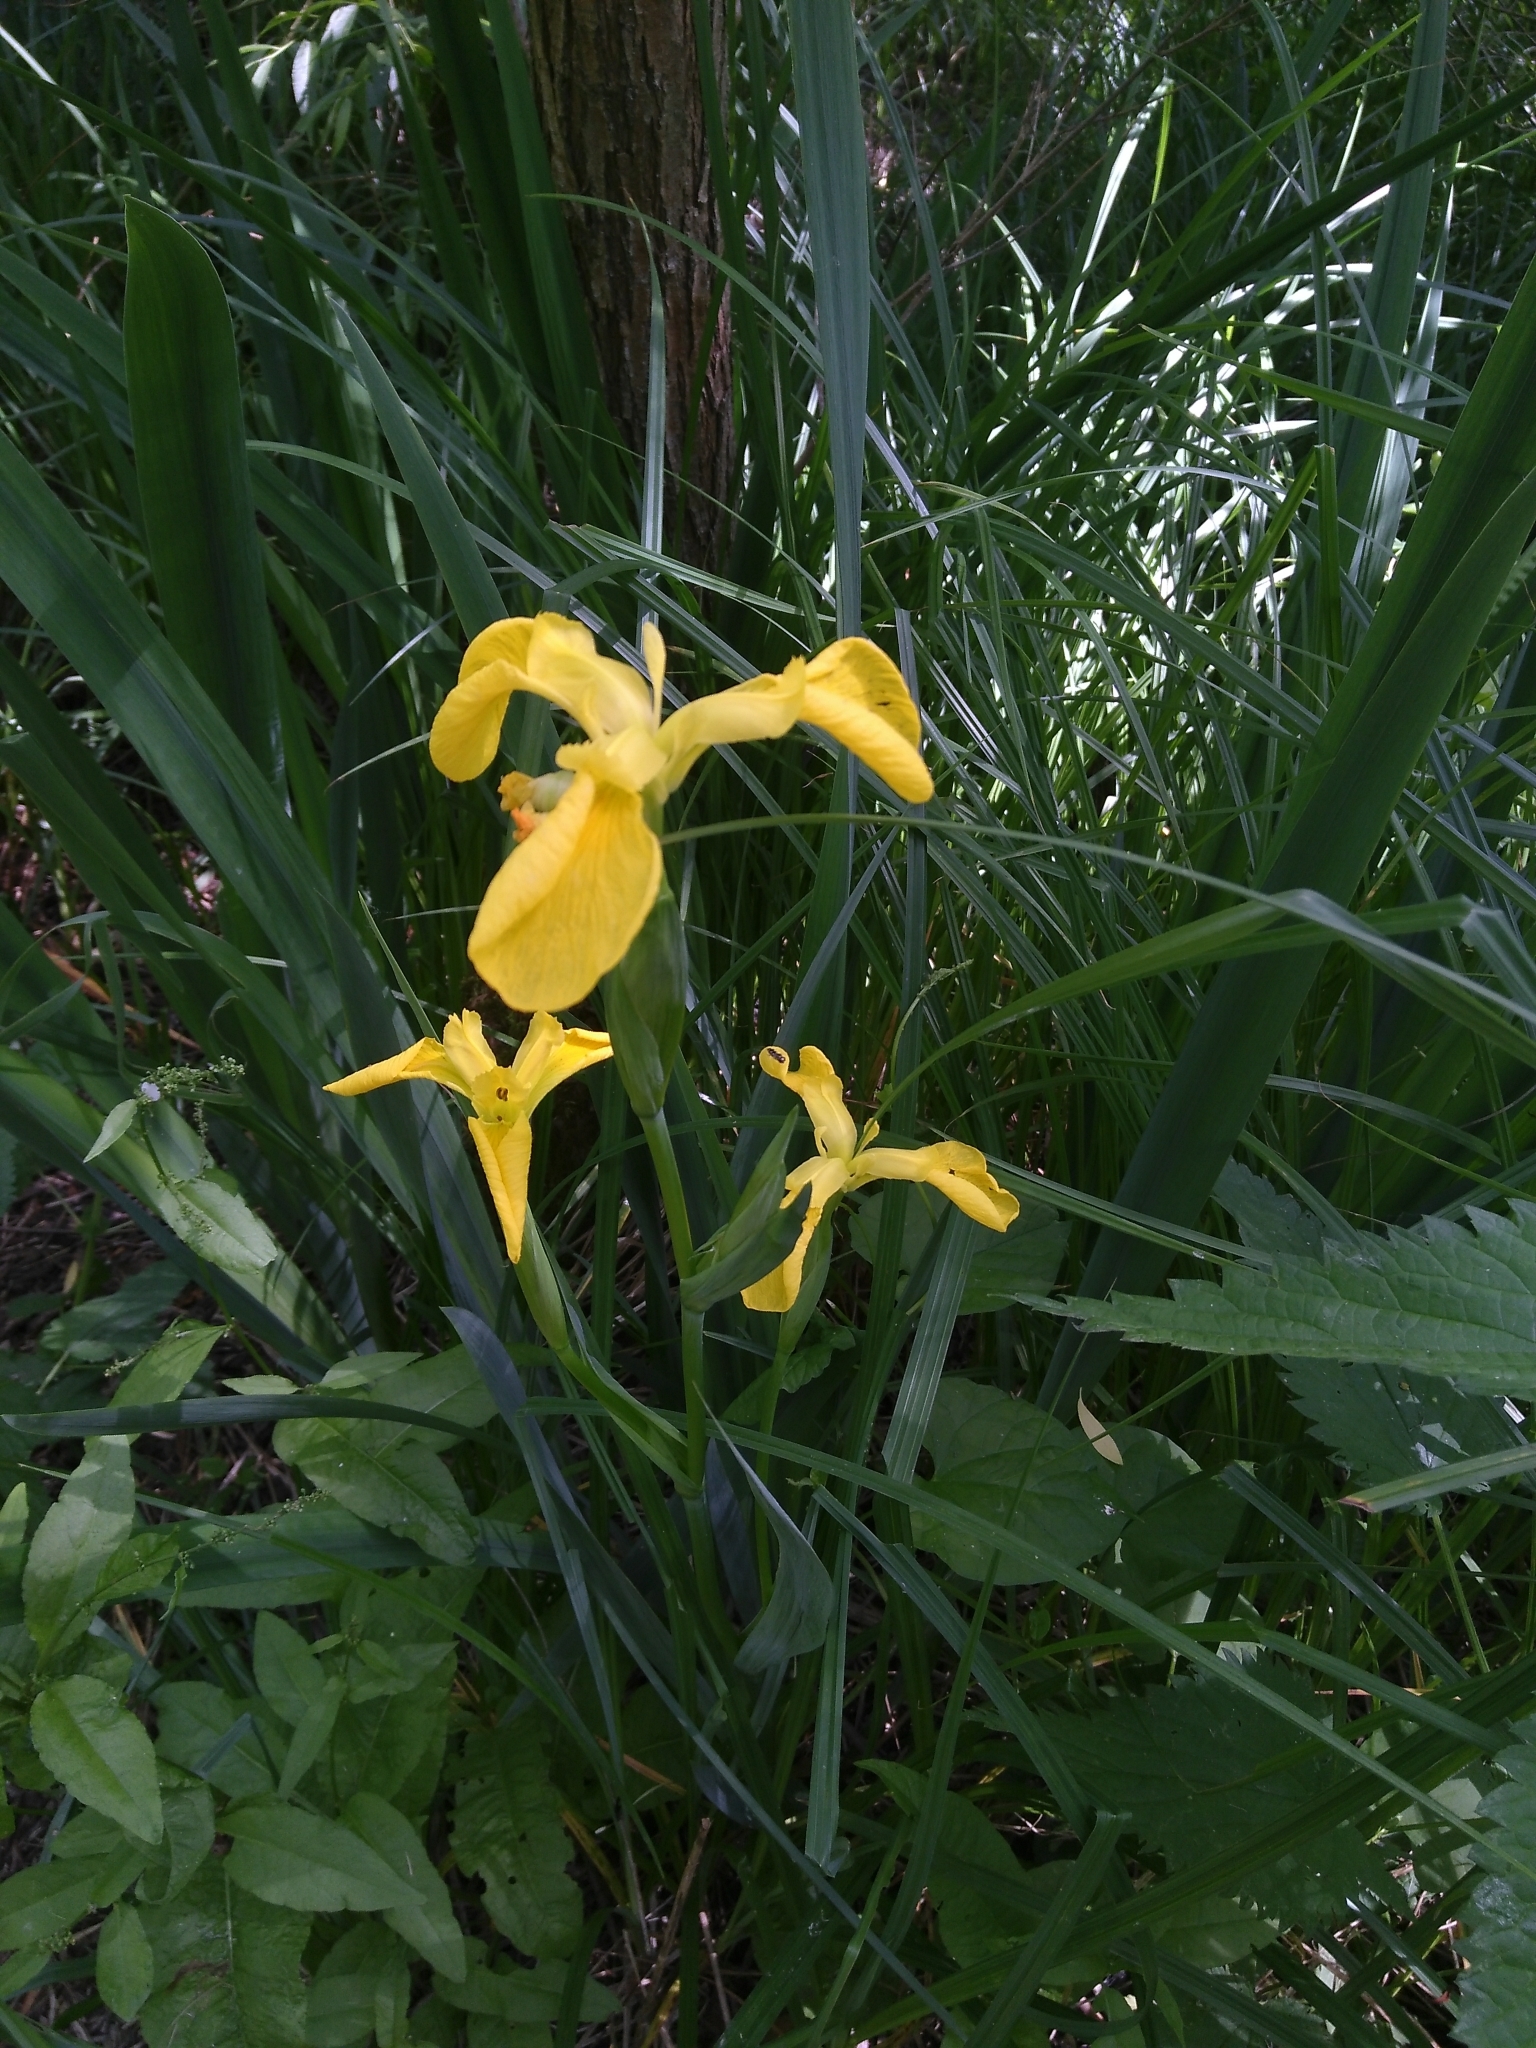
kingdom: Plantae
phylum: Tracheophyta
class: Liliopsida
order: Asparagales
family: Iridaceae
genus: Iris
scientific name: Iris pseudacorus
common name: Yellow flag
